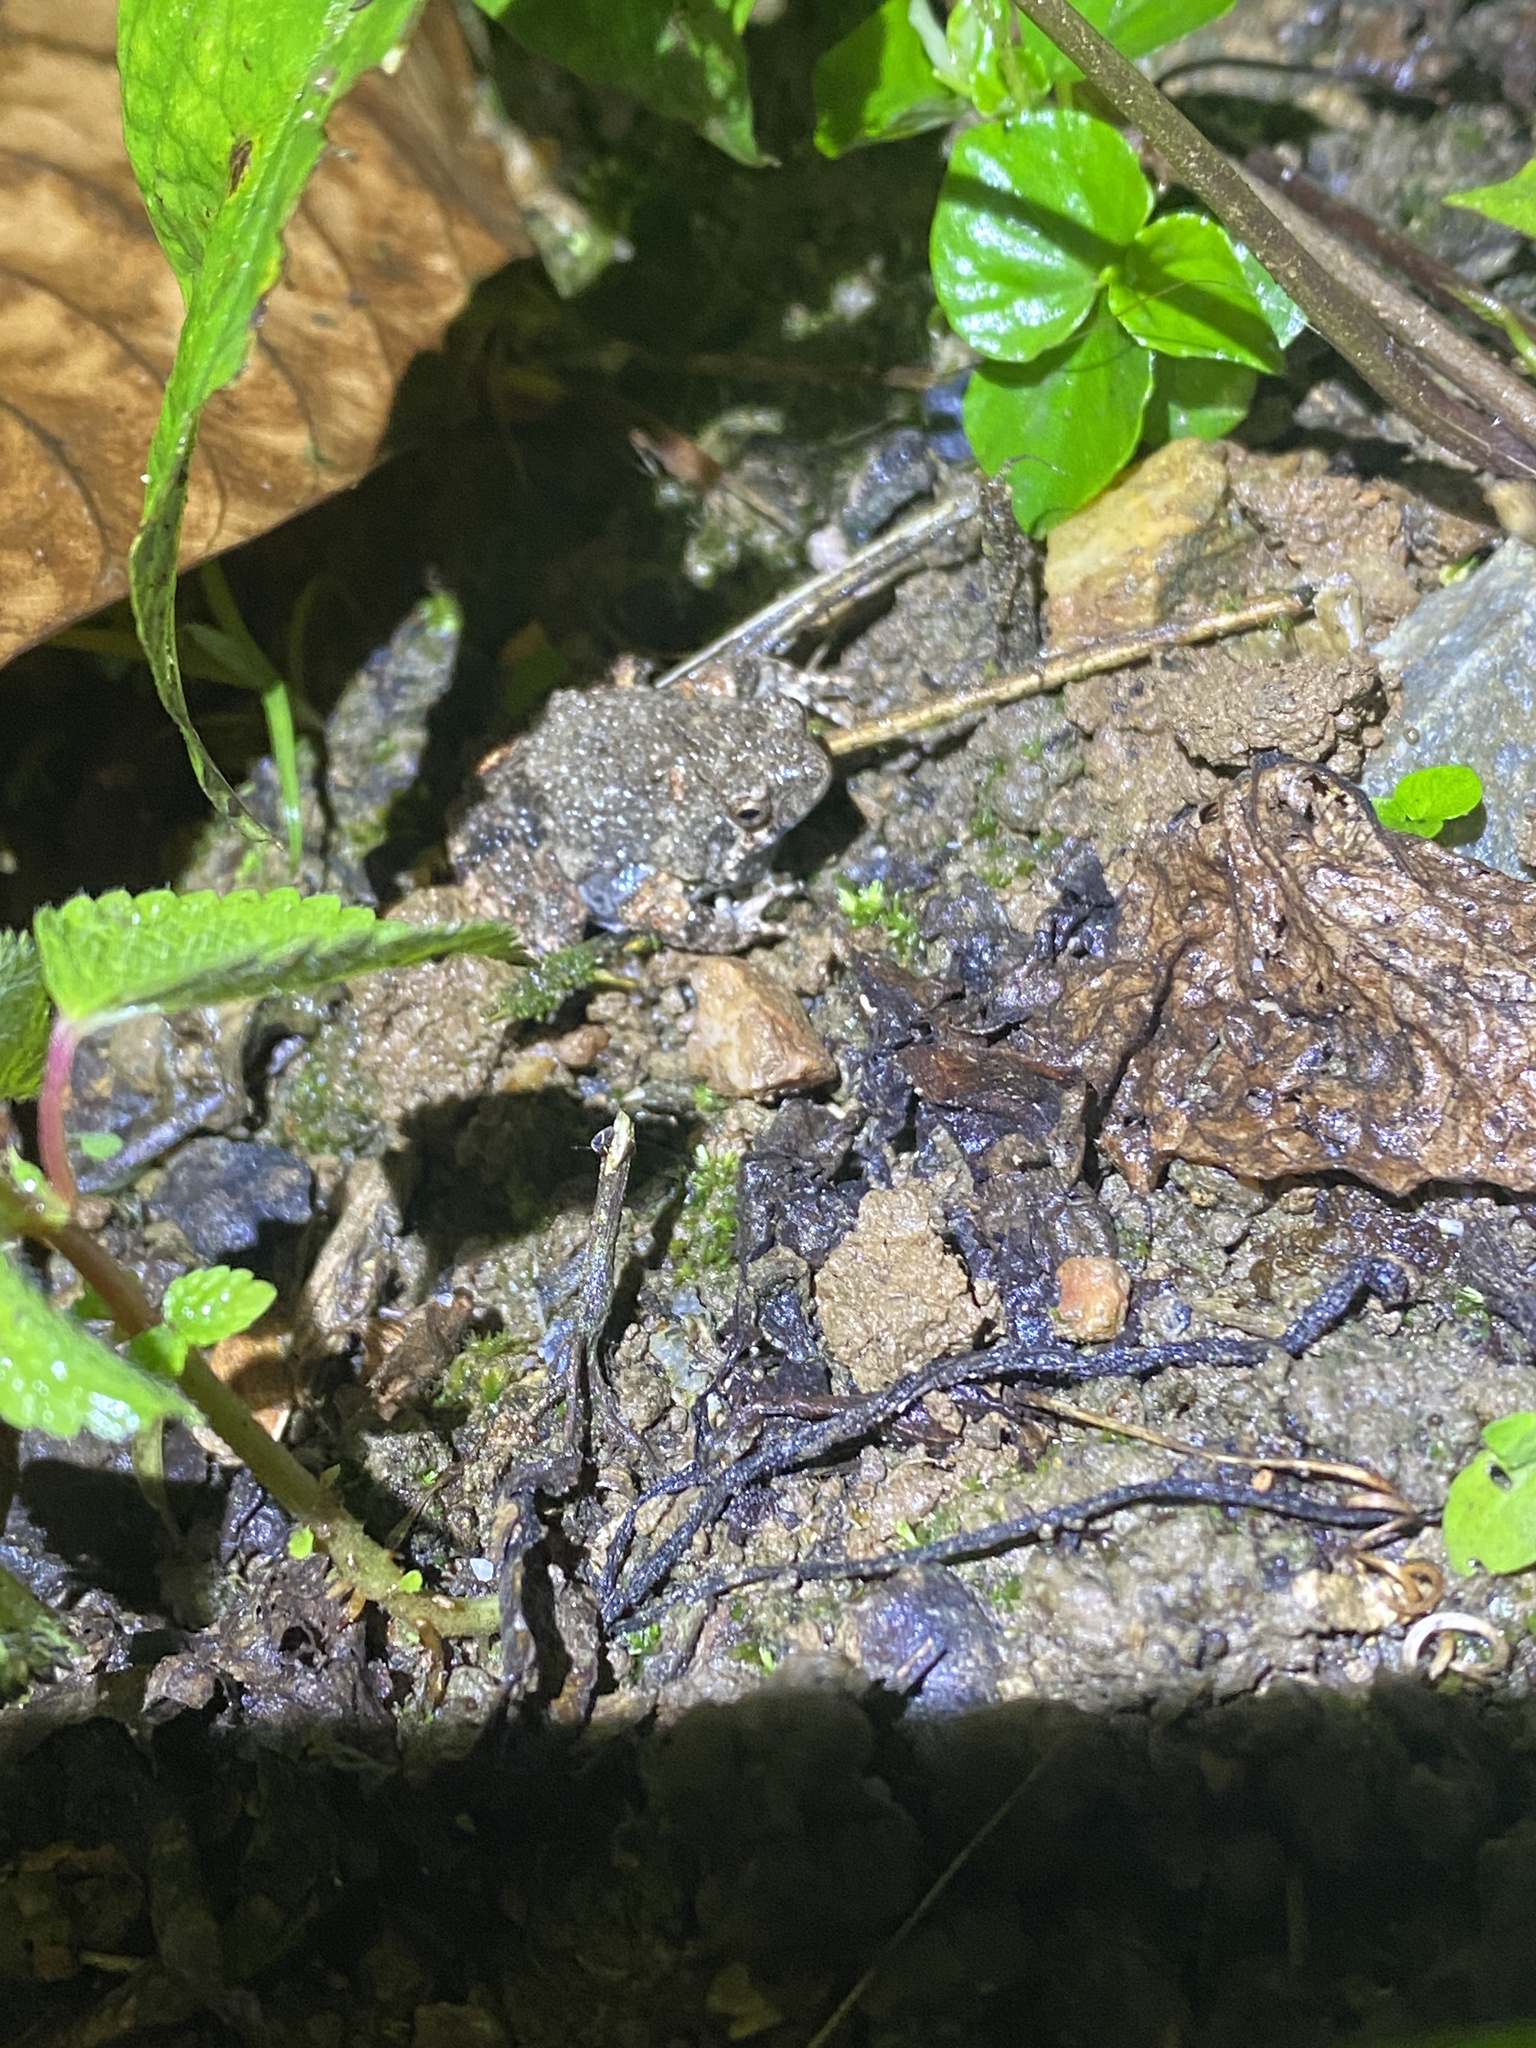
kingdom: Animalia
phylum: Chordata
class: Amphibia
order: Anura
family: Leptodactylidae
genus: Engystomops
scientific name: Engystomops pustulosus
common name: Tungara frog
